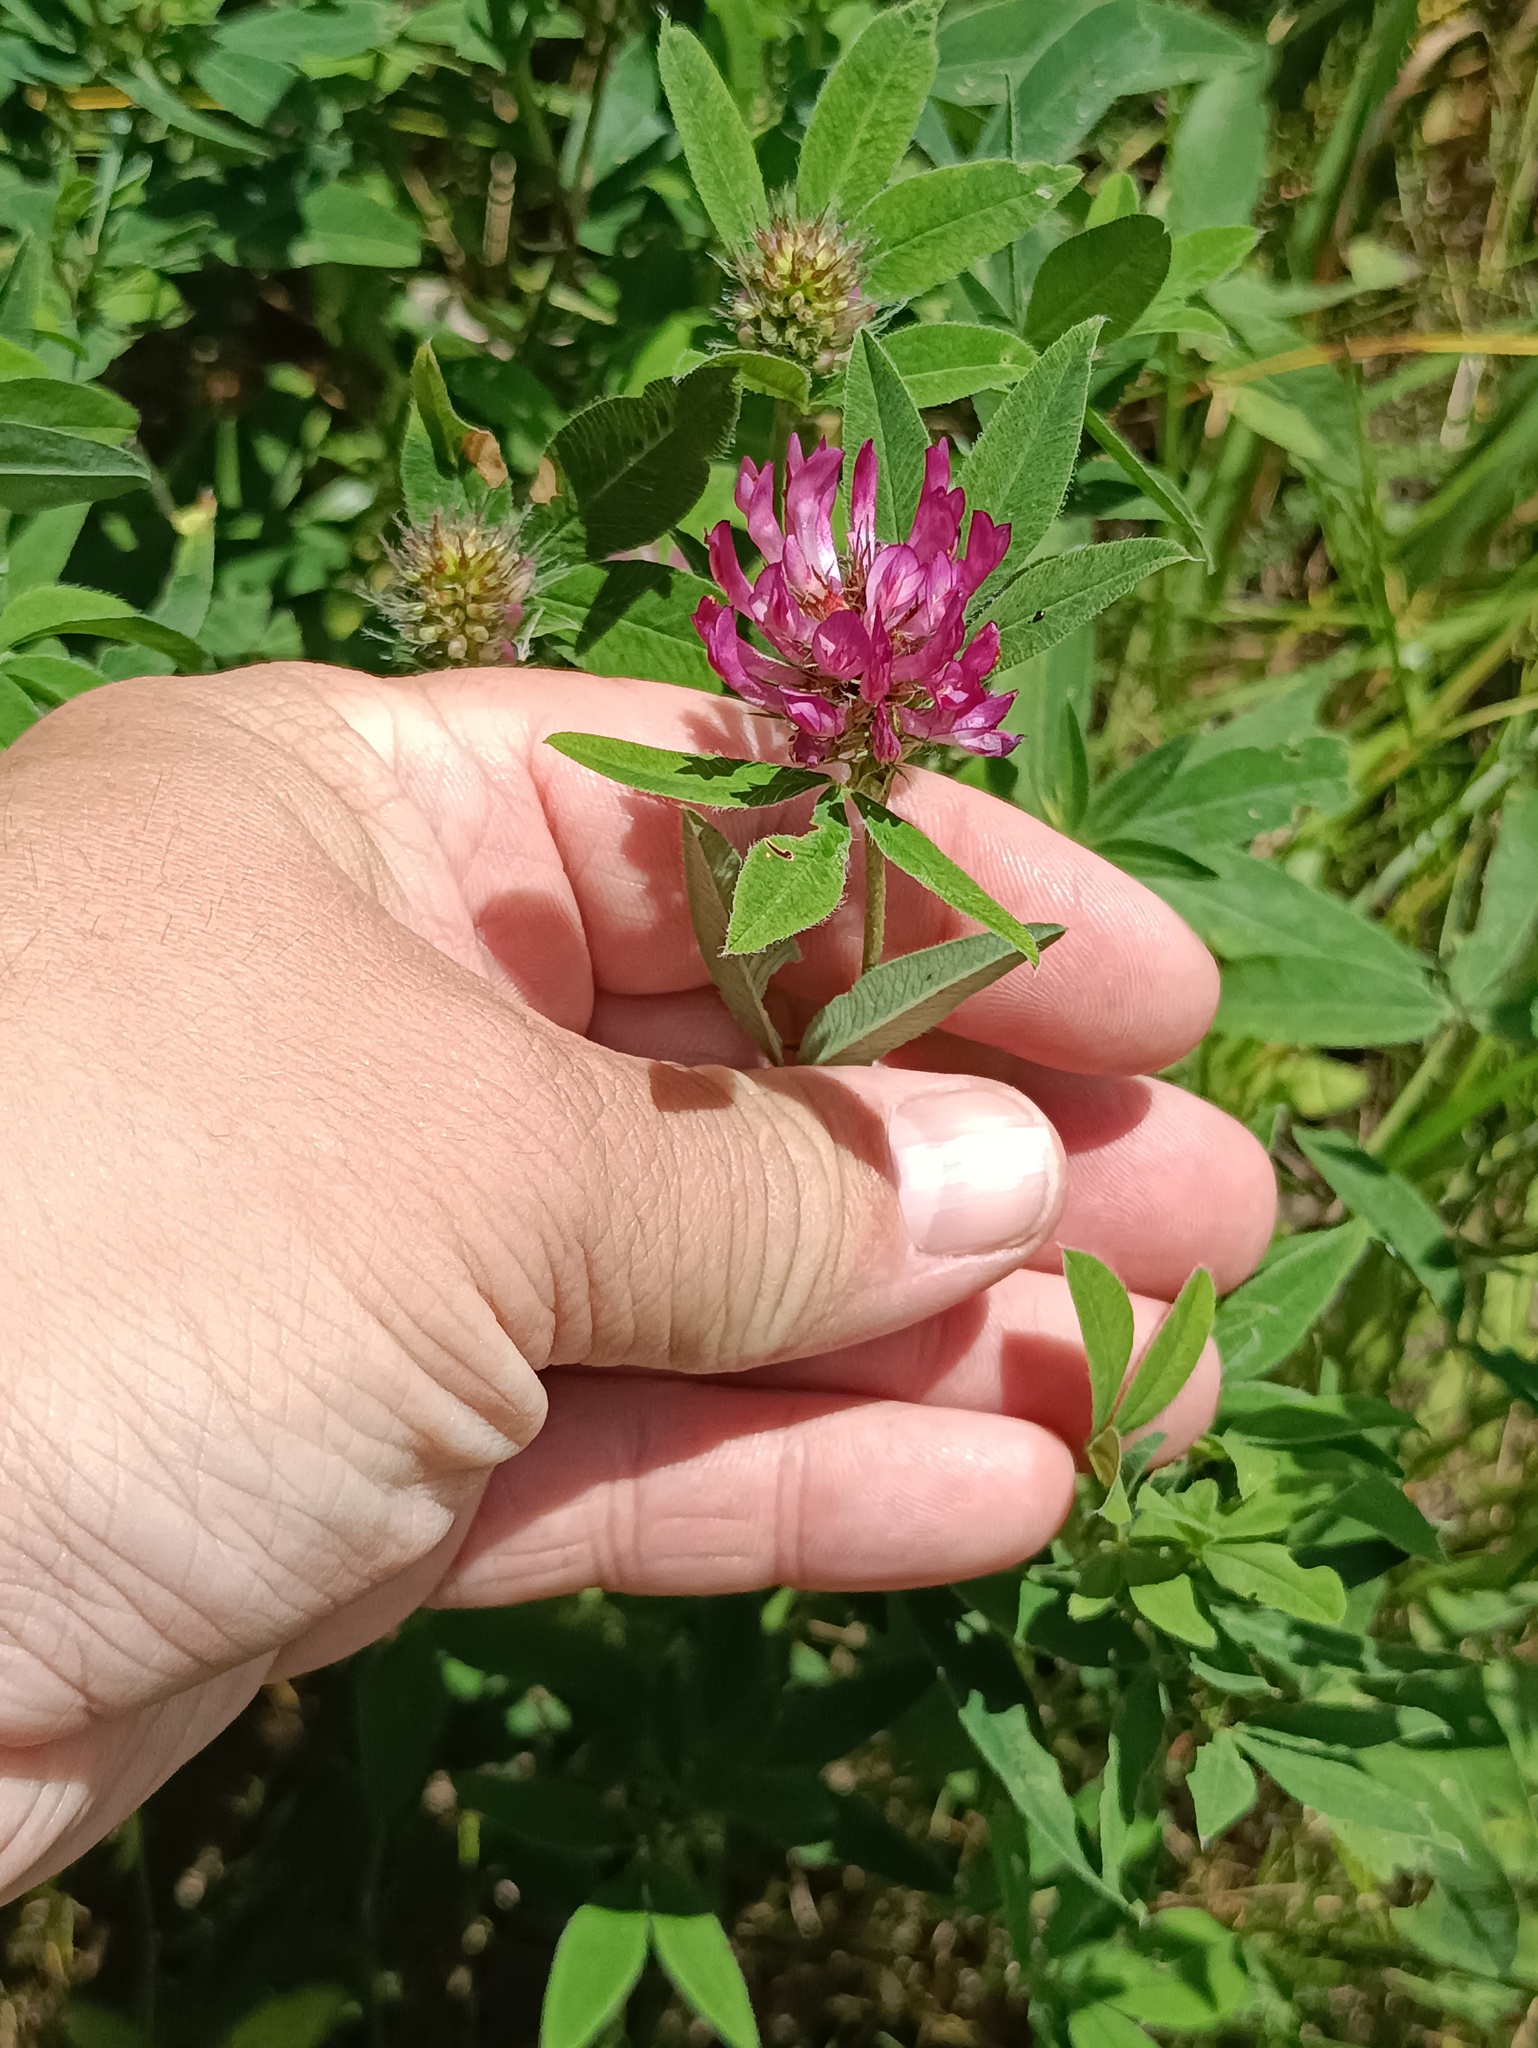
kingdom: Plantae
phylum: Tracheophyta
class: Magnoliopsida
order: Fabales
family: Fabaceae
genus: Trifolium
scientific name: Trifolium medium
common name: Zigzag clover
